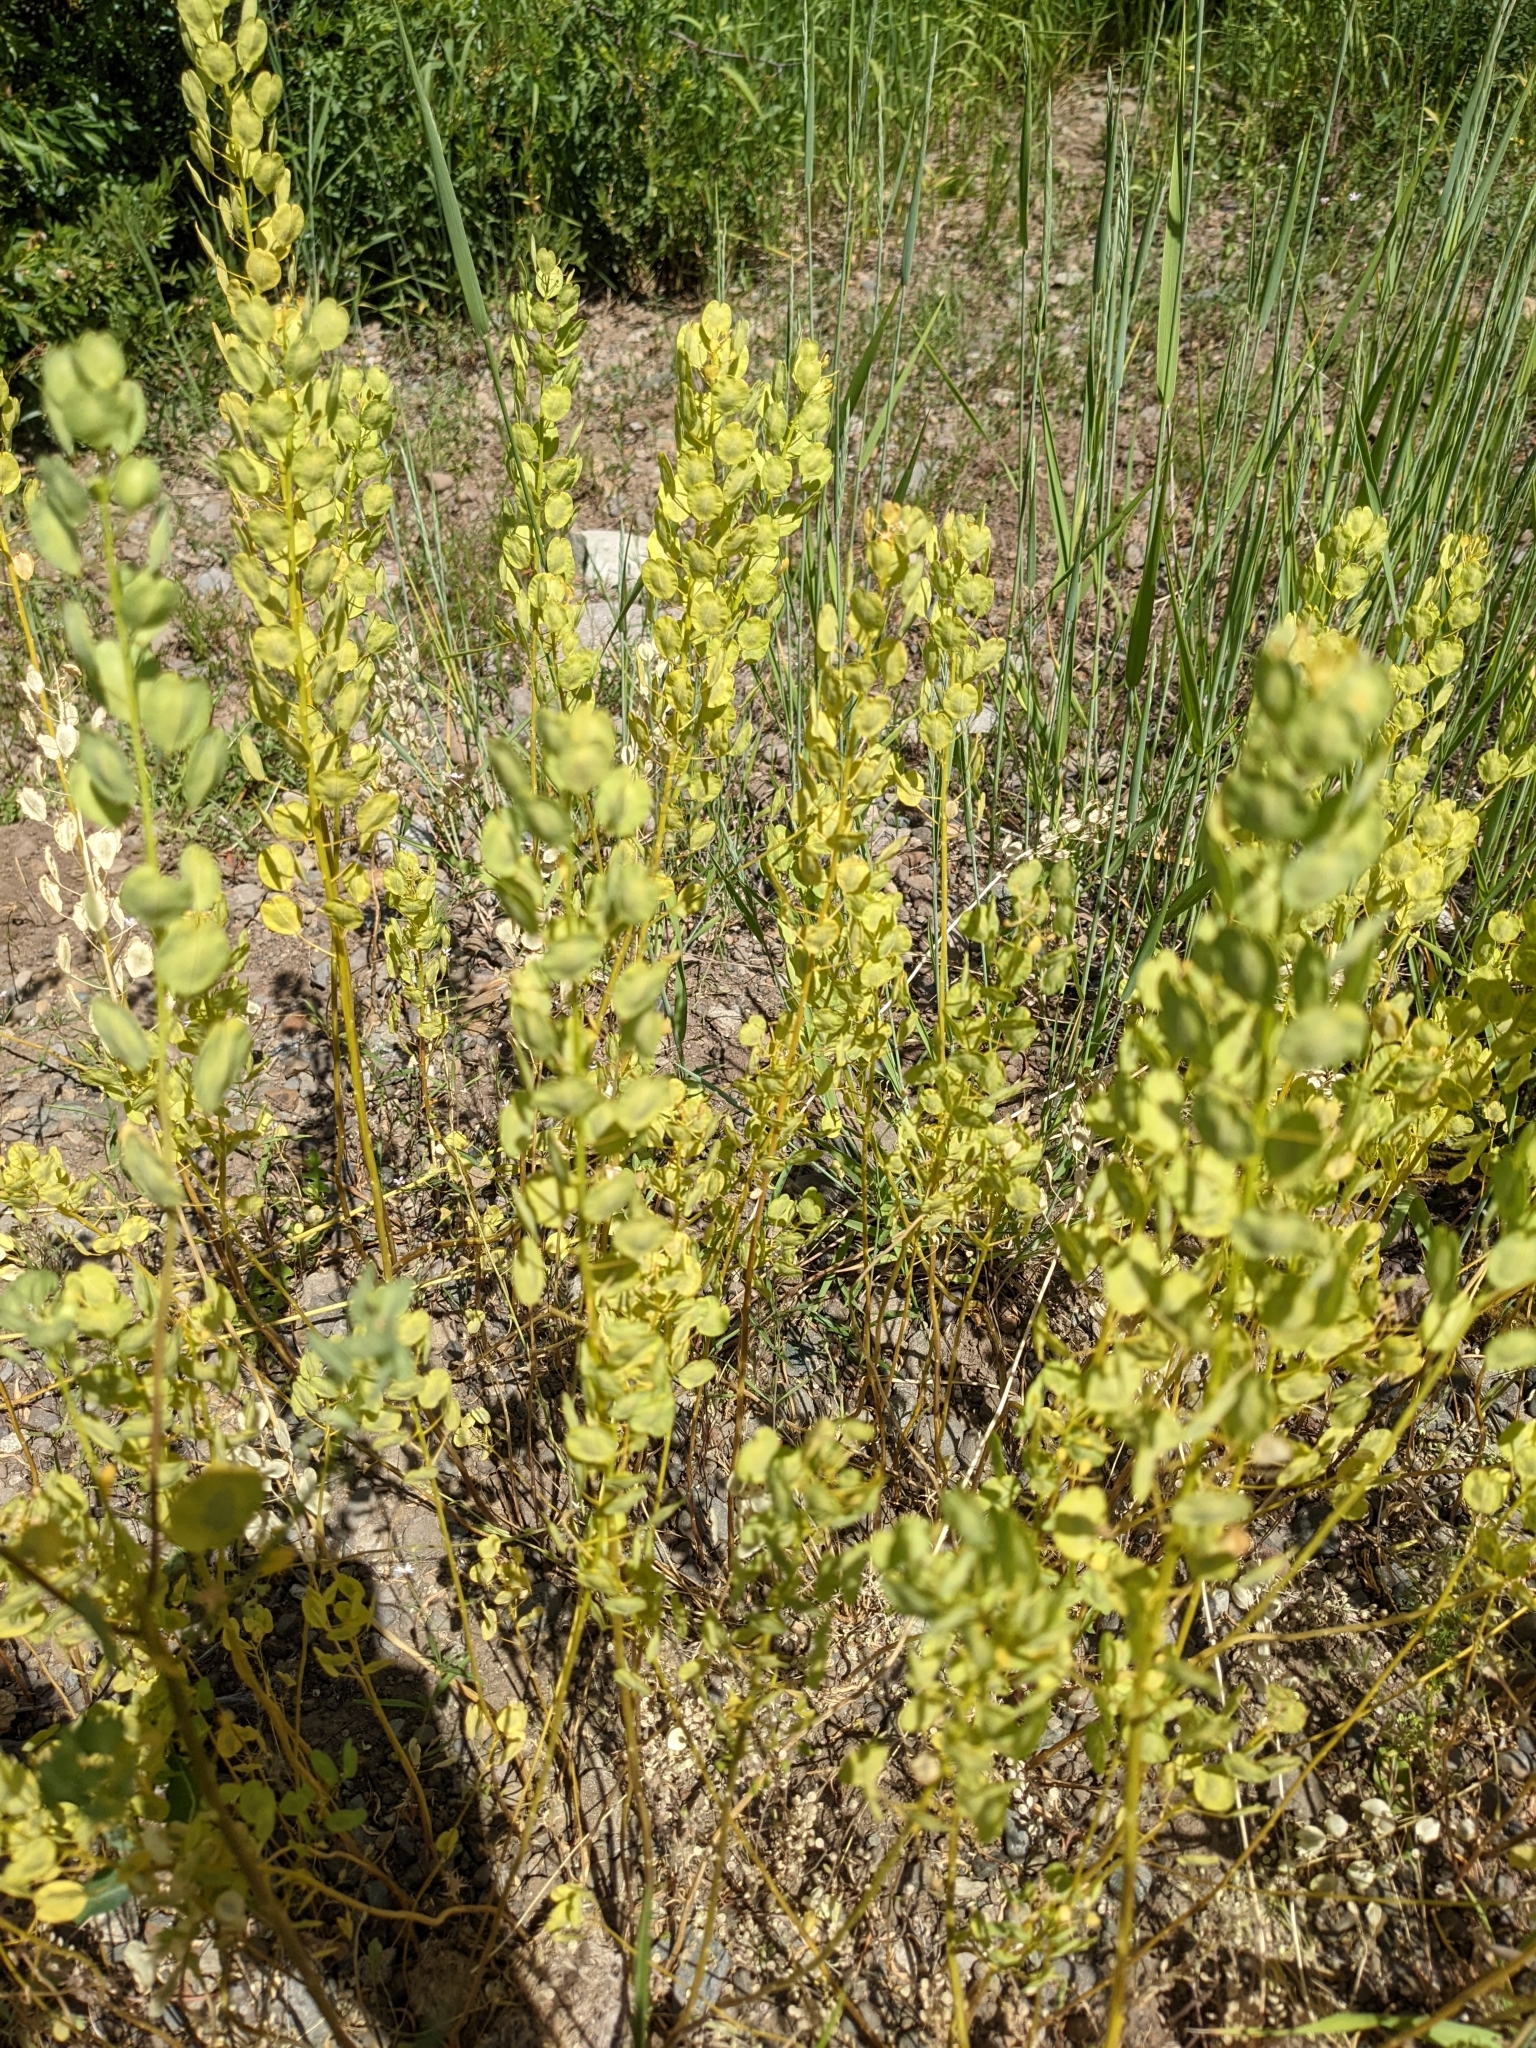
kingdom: Plantae
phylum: Tracheophyta
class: Magnoliopsida
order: Brassicales
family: Brassicaceae
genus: Thlaspi
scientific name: Thlaspi arvense
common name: Field pennycress
